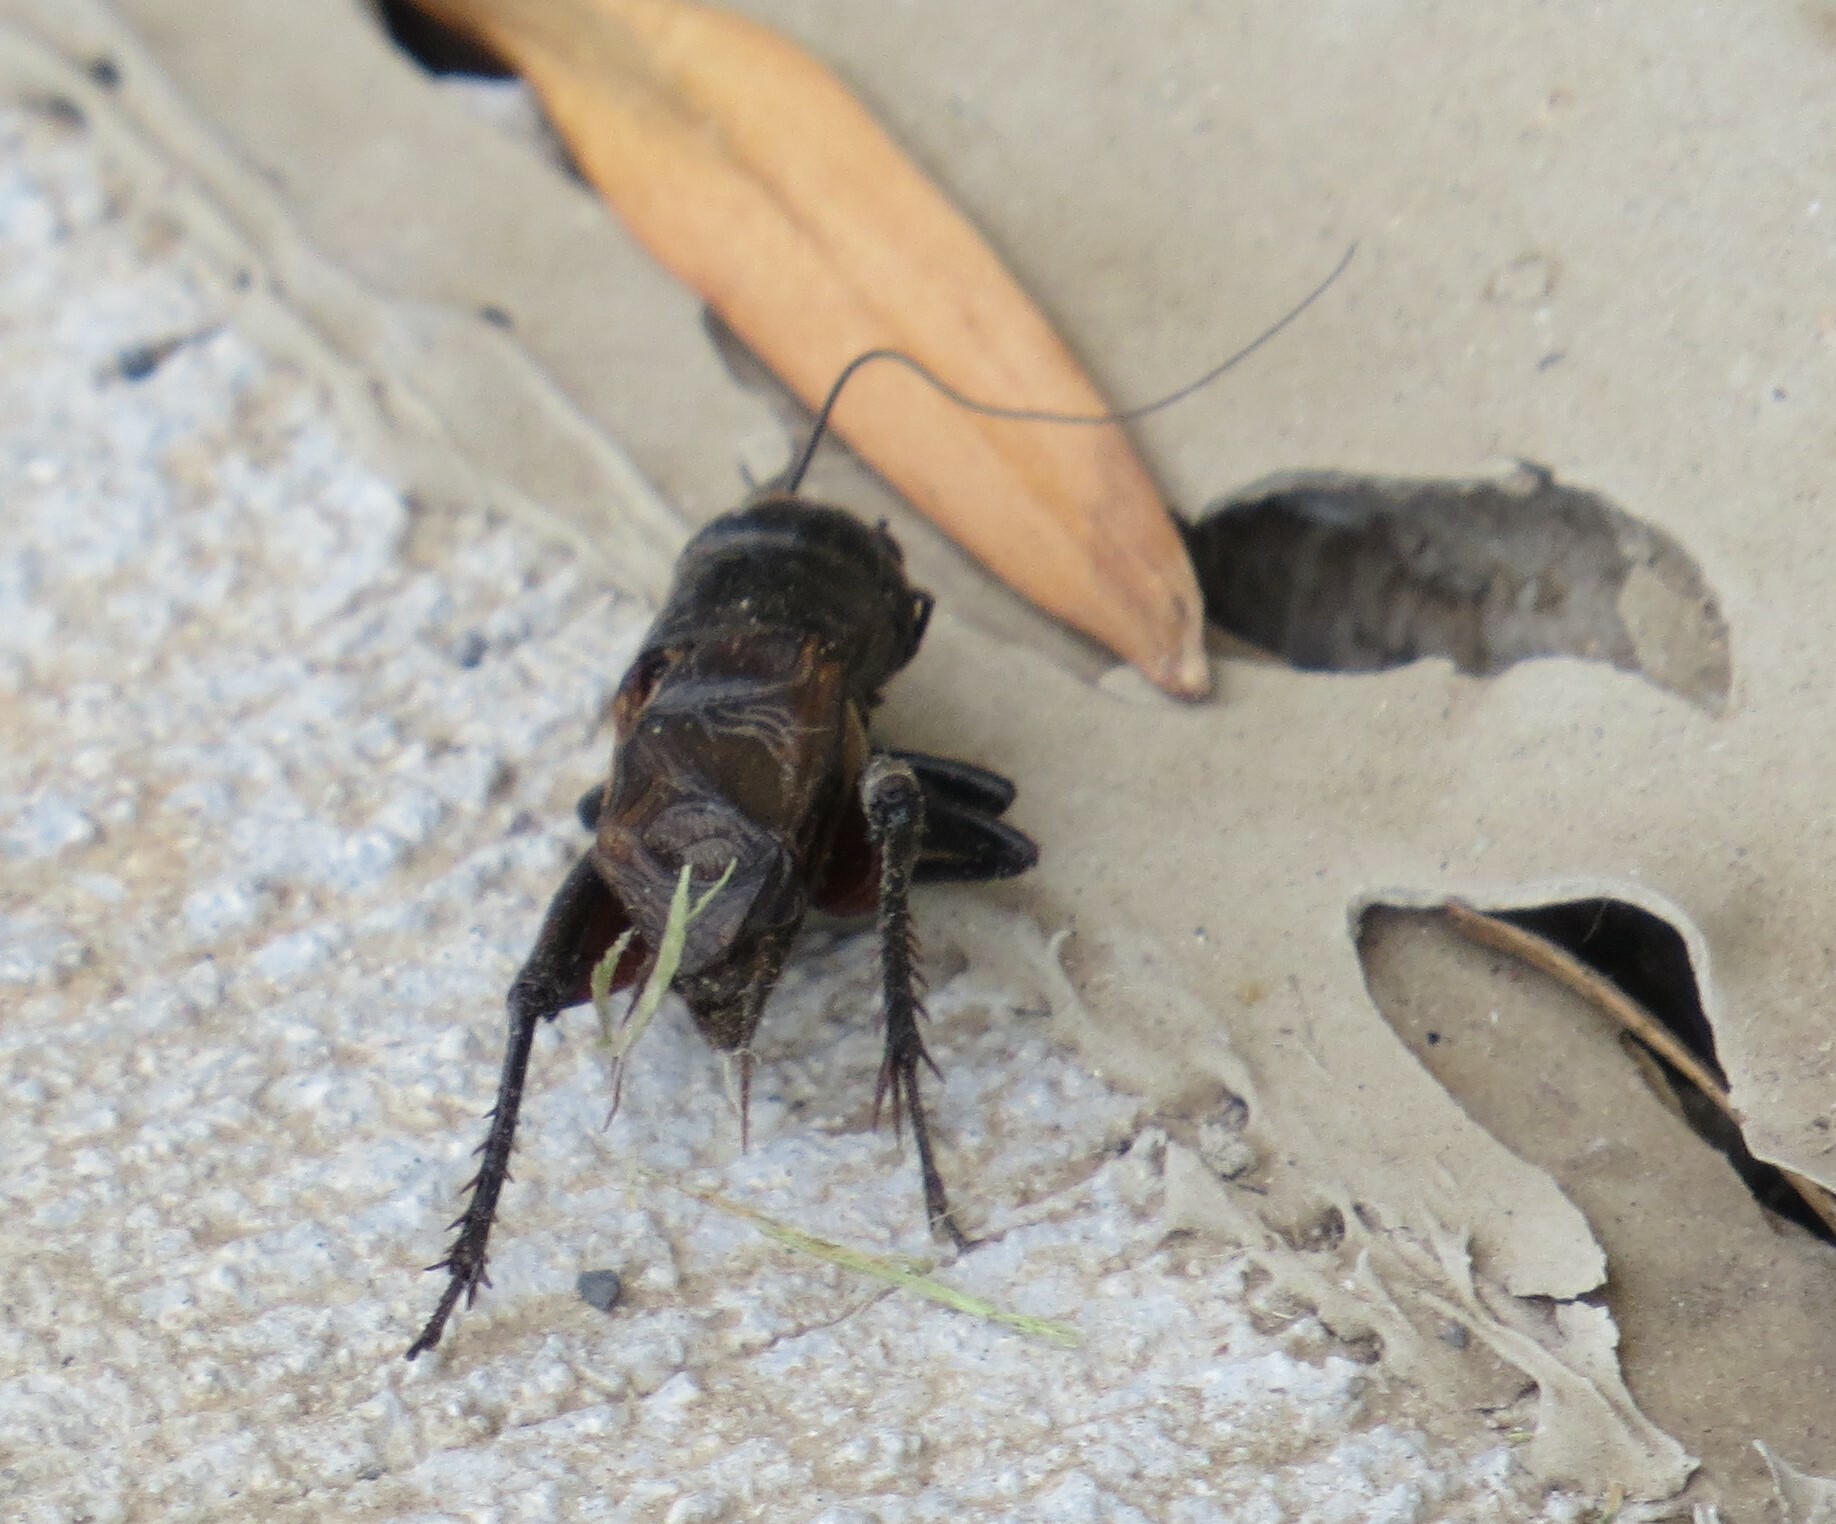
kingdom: Animalia
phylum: Arthropoda
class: Insecta
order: Orthoptera
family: Gryllidae
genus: Gryllus
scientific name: Gryllus pennsylvanicus
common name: Fall field cricket
